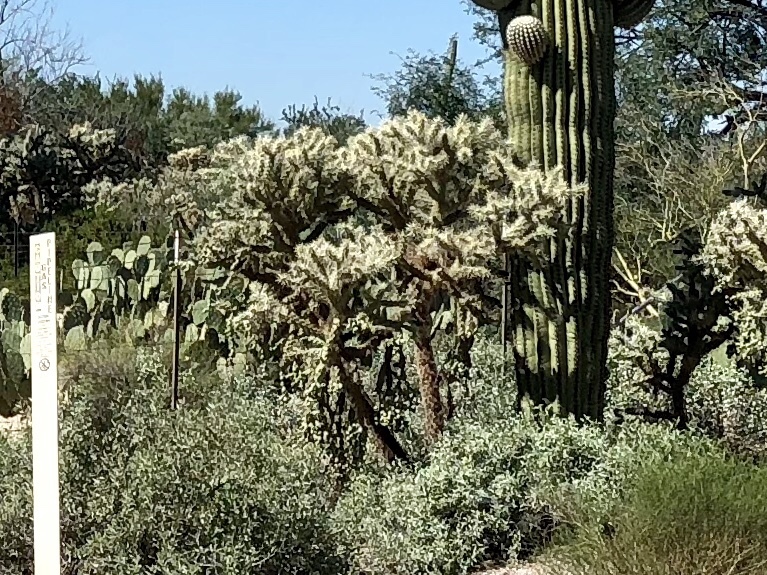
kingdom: Plantae
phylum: Tracheophyta
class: Magnoliopsida
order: Caryophyllales
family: Cactaceae
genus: Cylindropuntia
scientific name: Cylindropuntia fulgida
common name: Jumping cholla
